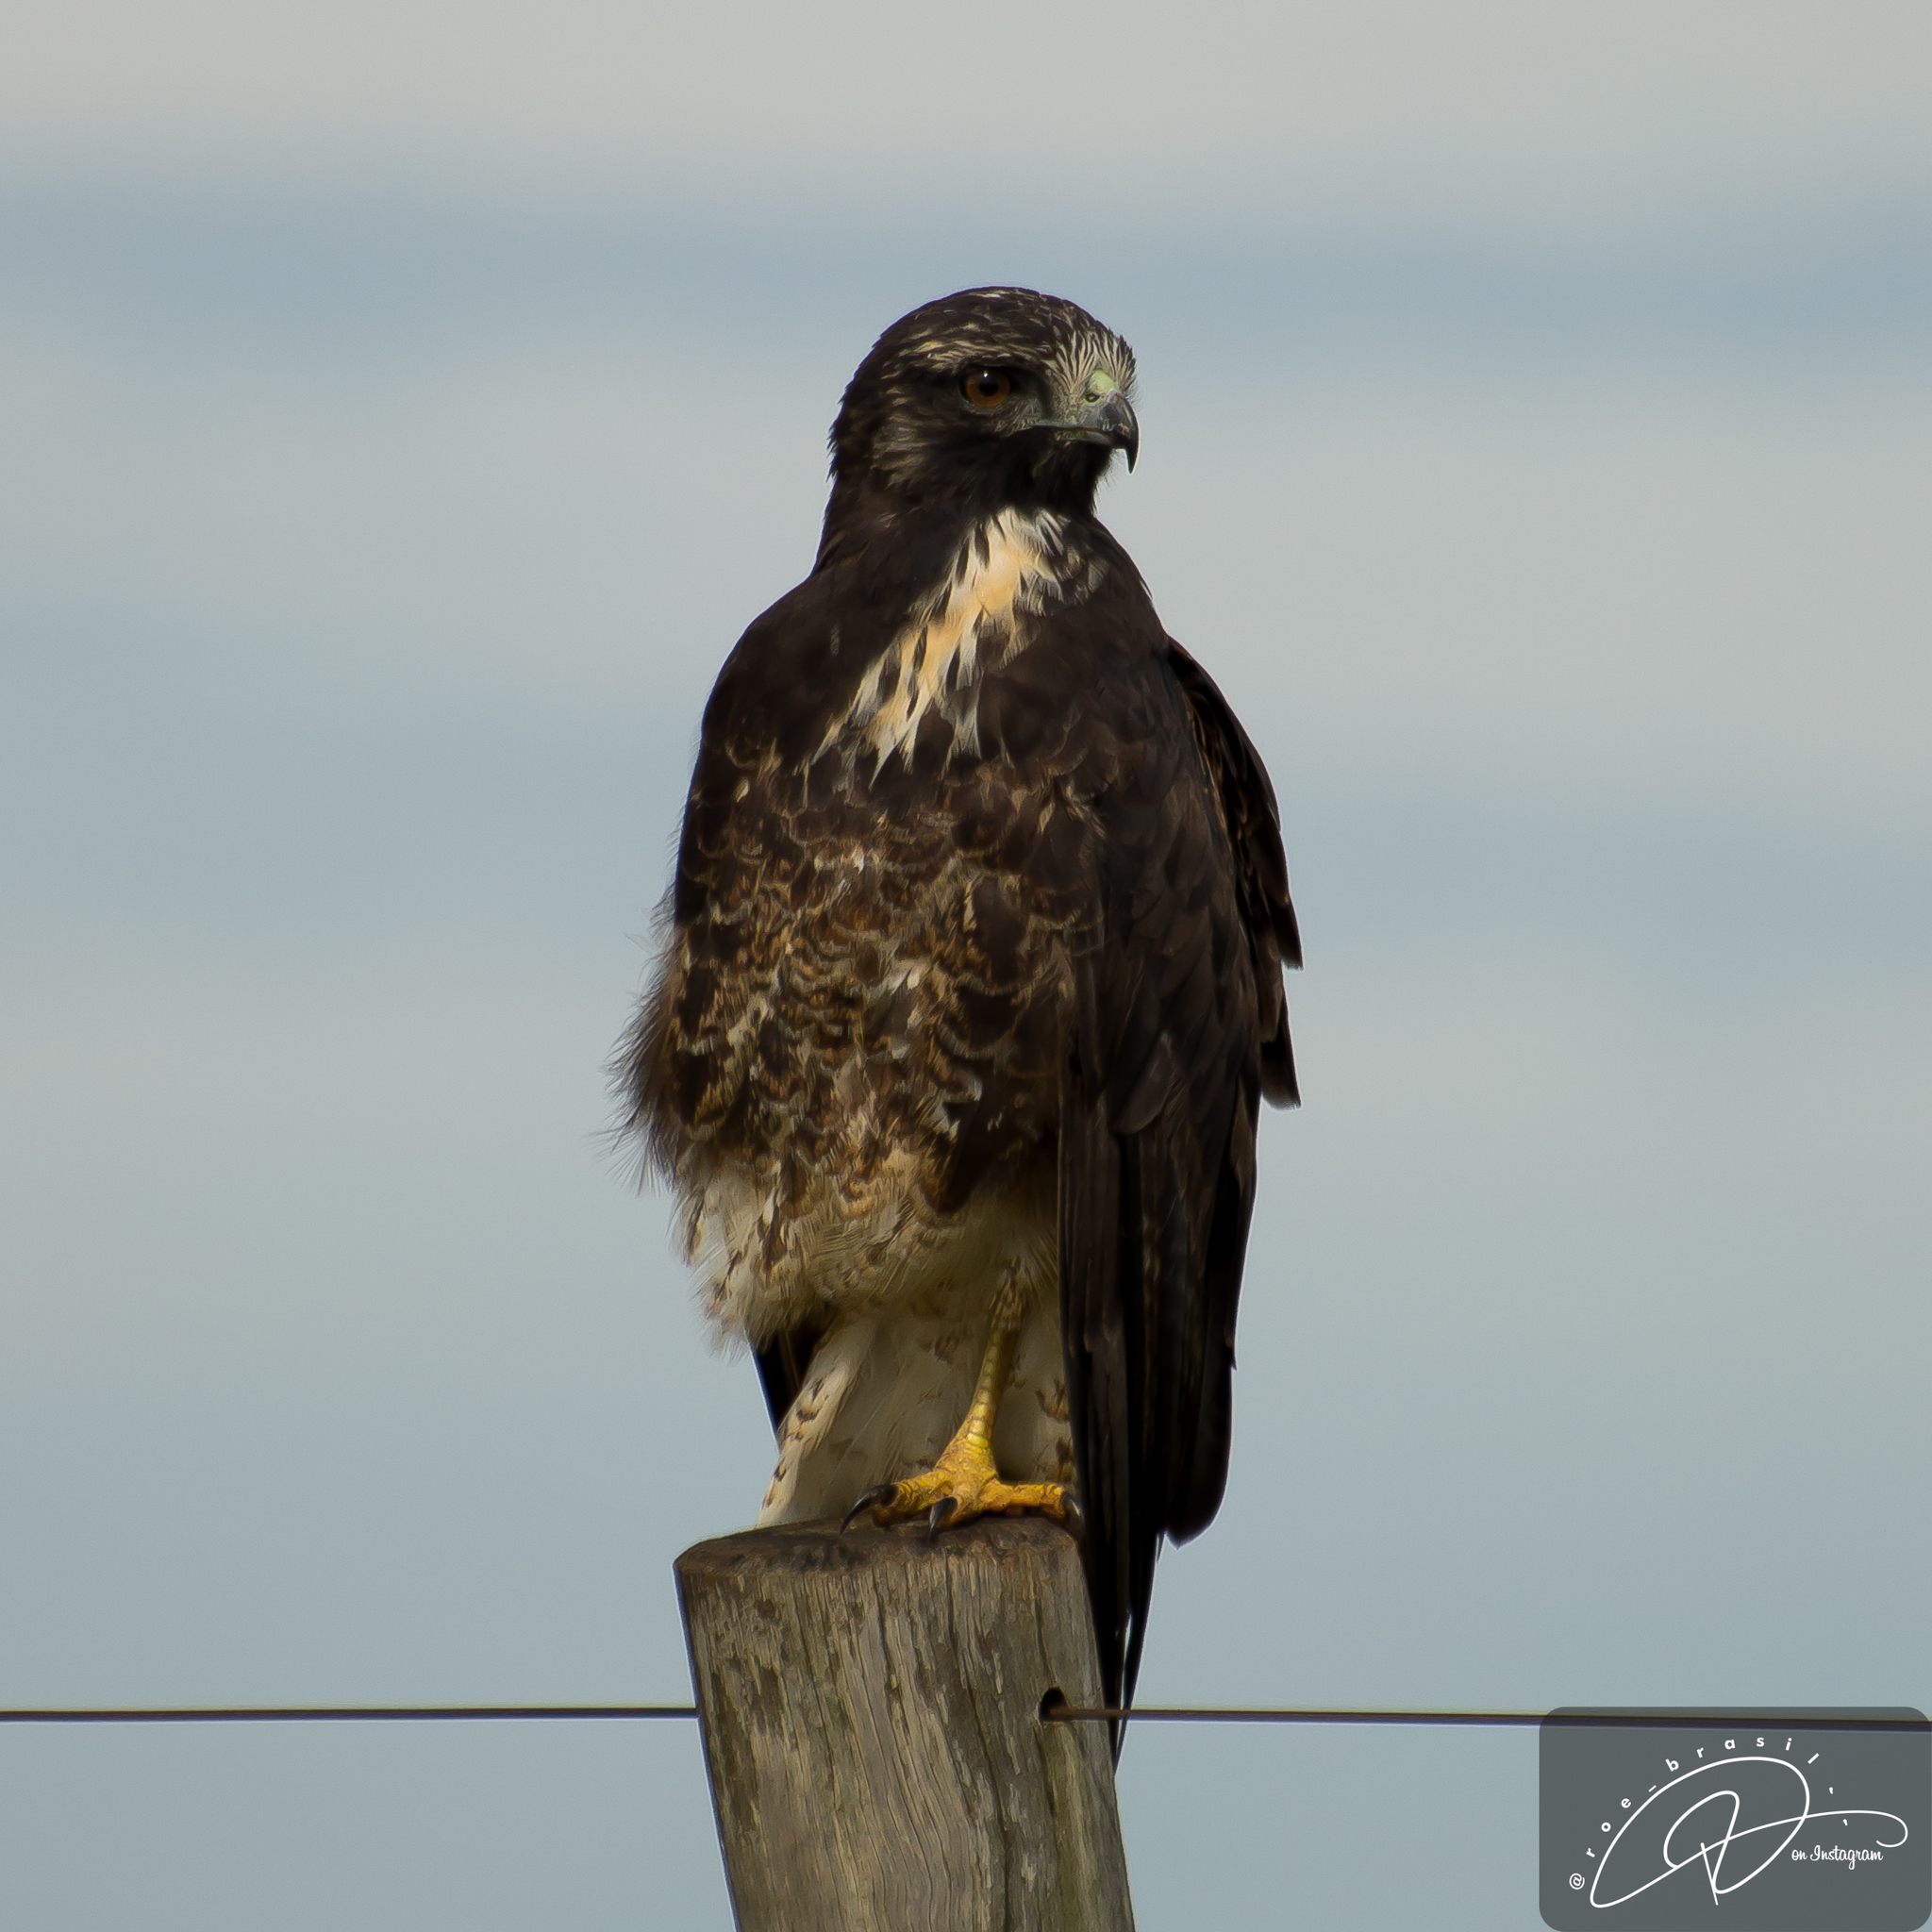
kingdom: Animalia
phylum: Chordata
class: Aves
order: Accipitriformes
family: Accipitridae
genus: Buteo
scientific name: Buteo albicaudatus
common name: White-tailed hawk
